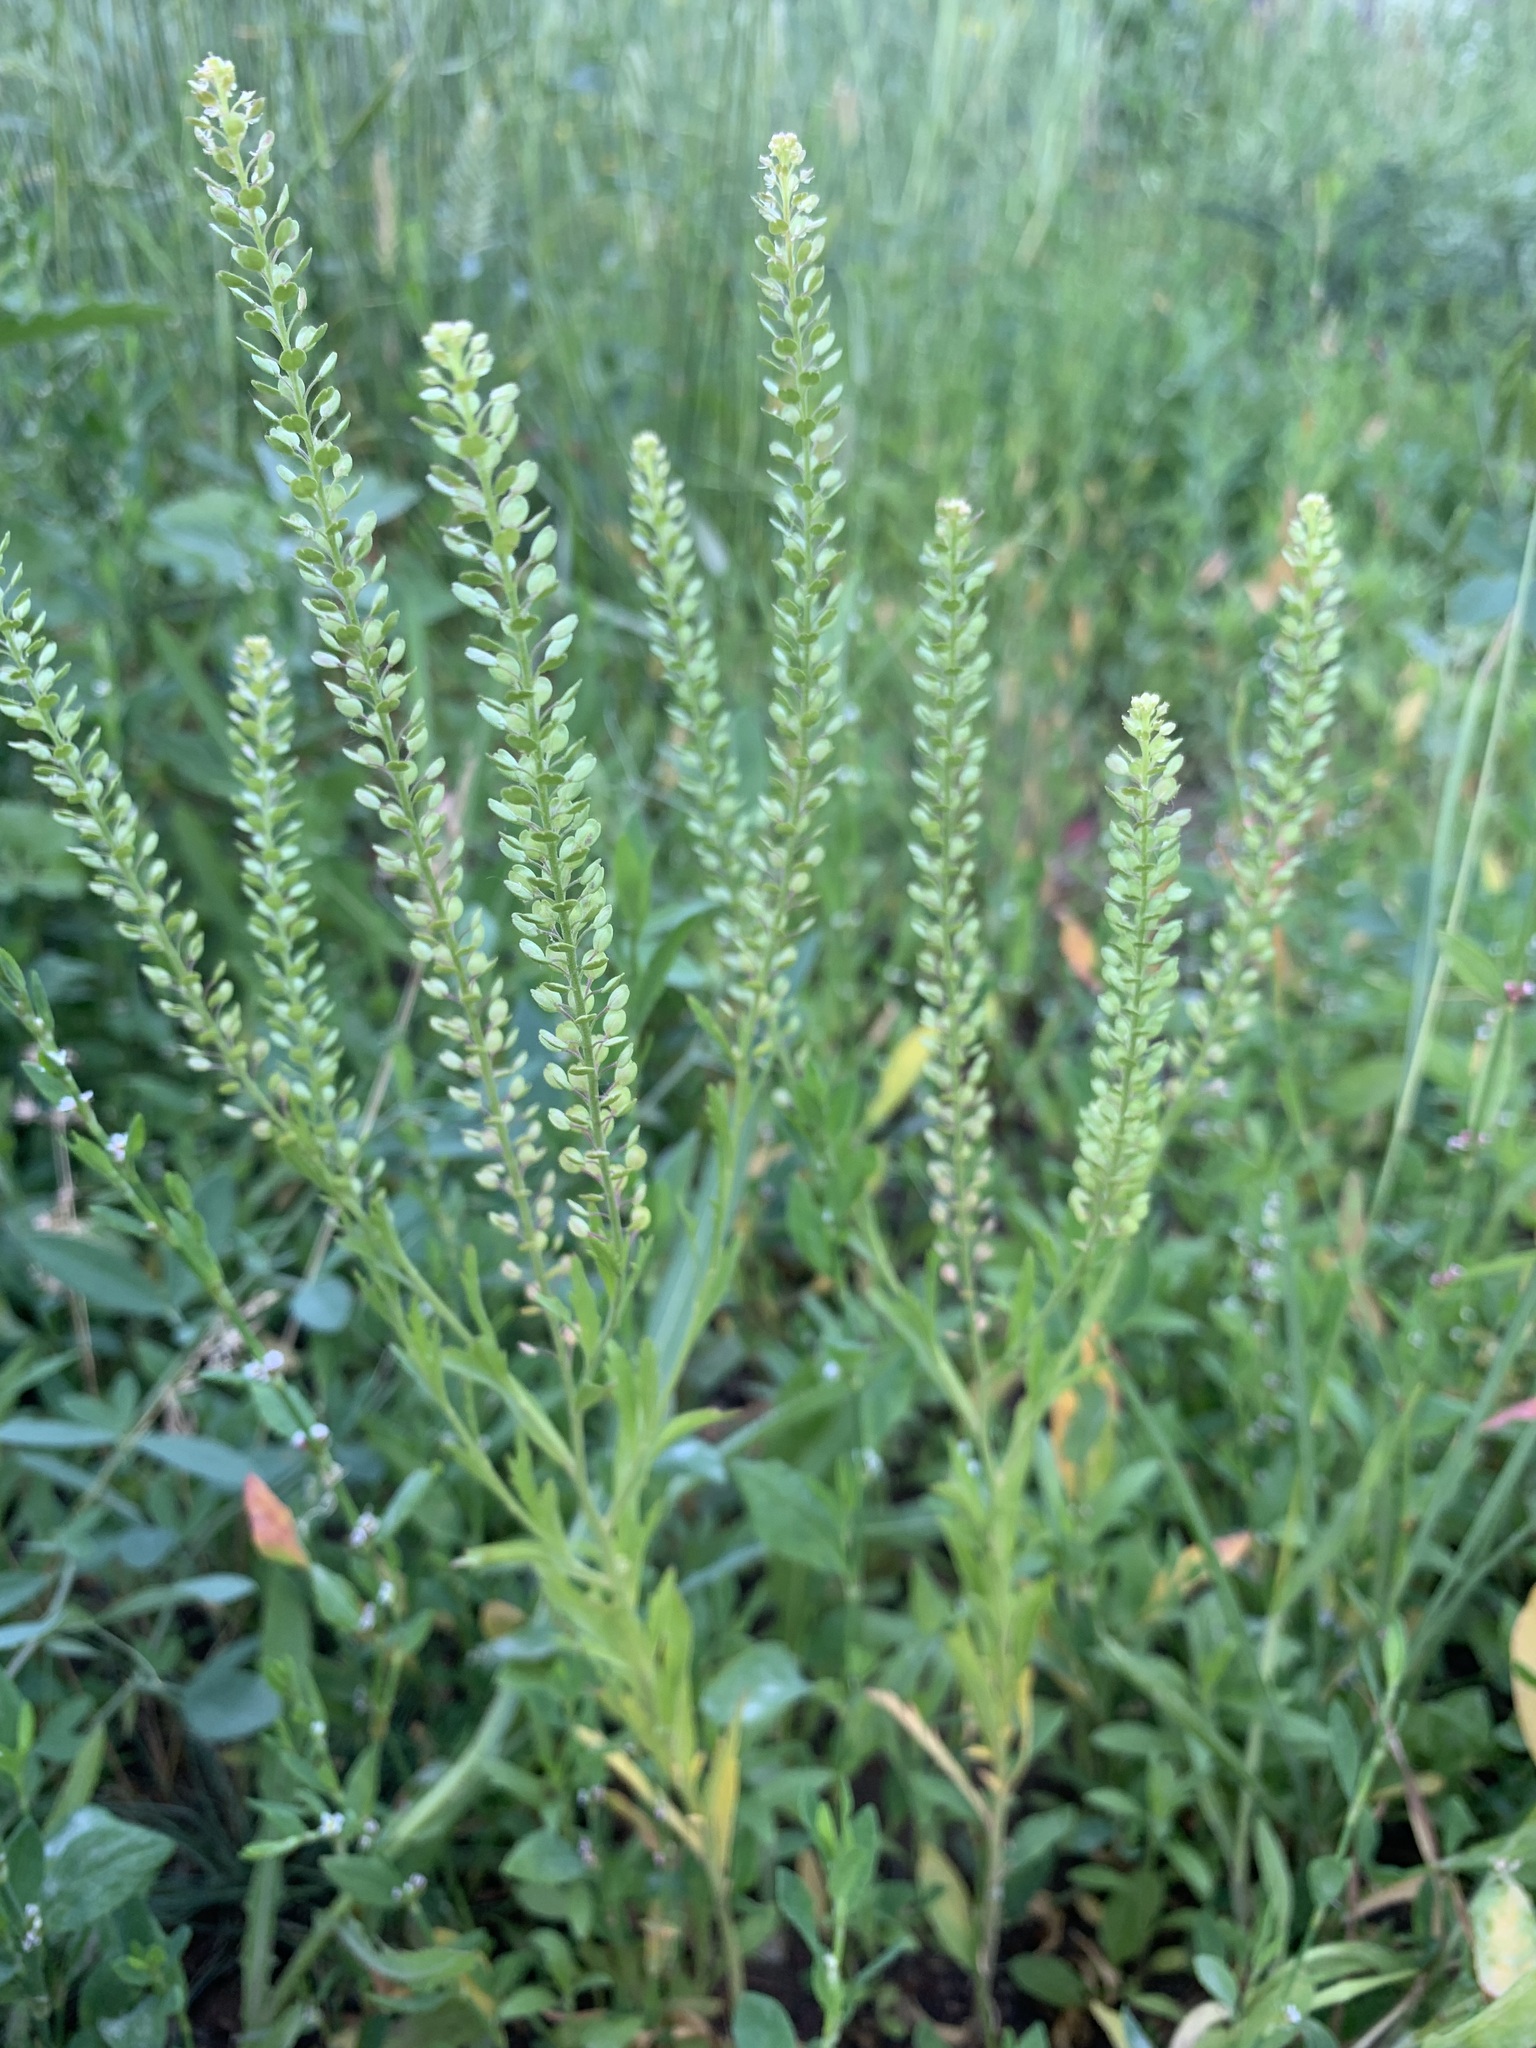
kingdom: Plantae
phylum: Tracheophyta
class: Magnoliopsida
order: Brassicales
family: Brassicaceae
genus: Lepidium
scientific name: Lepidium densiflorum
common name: Miner's pepperwort
